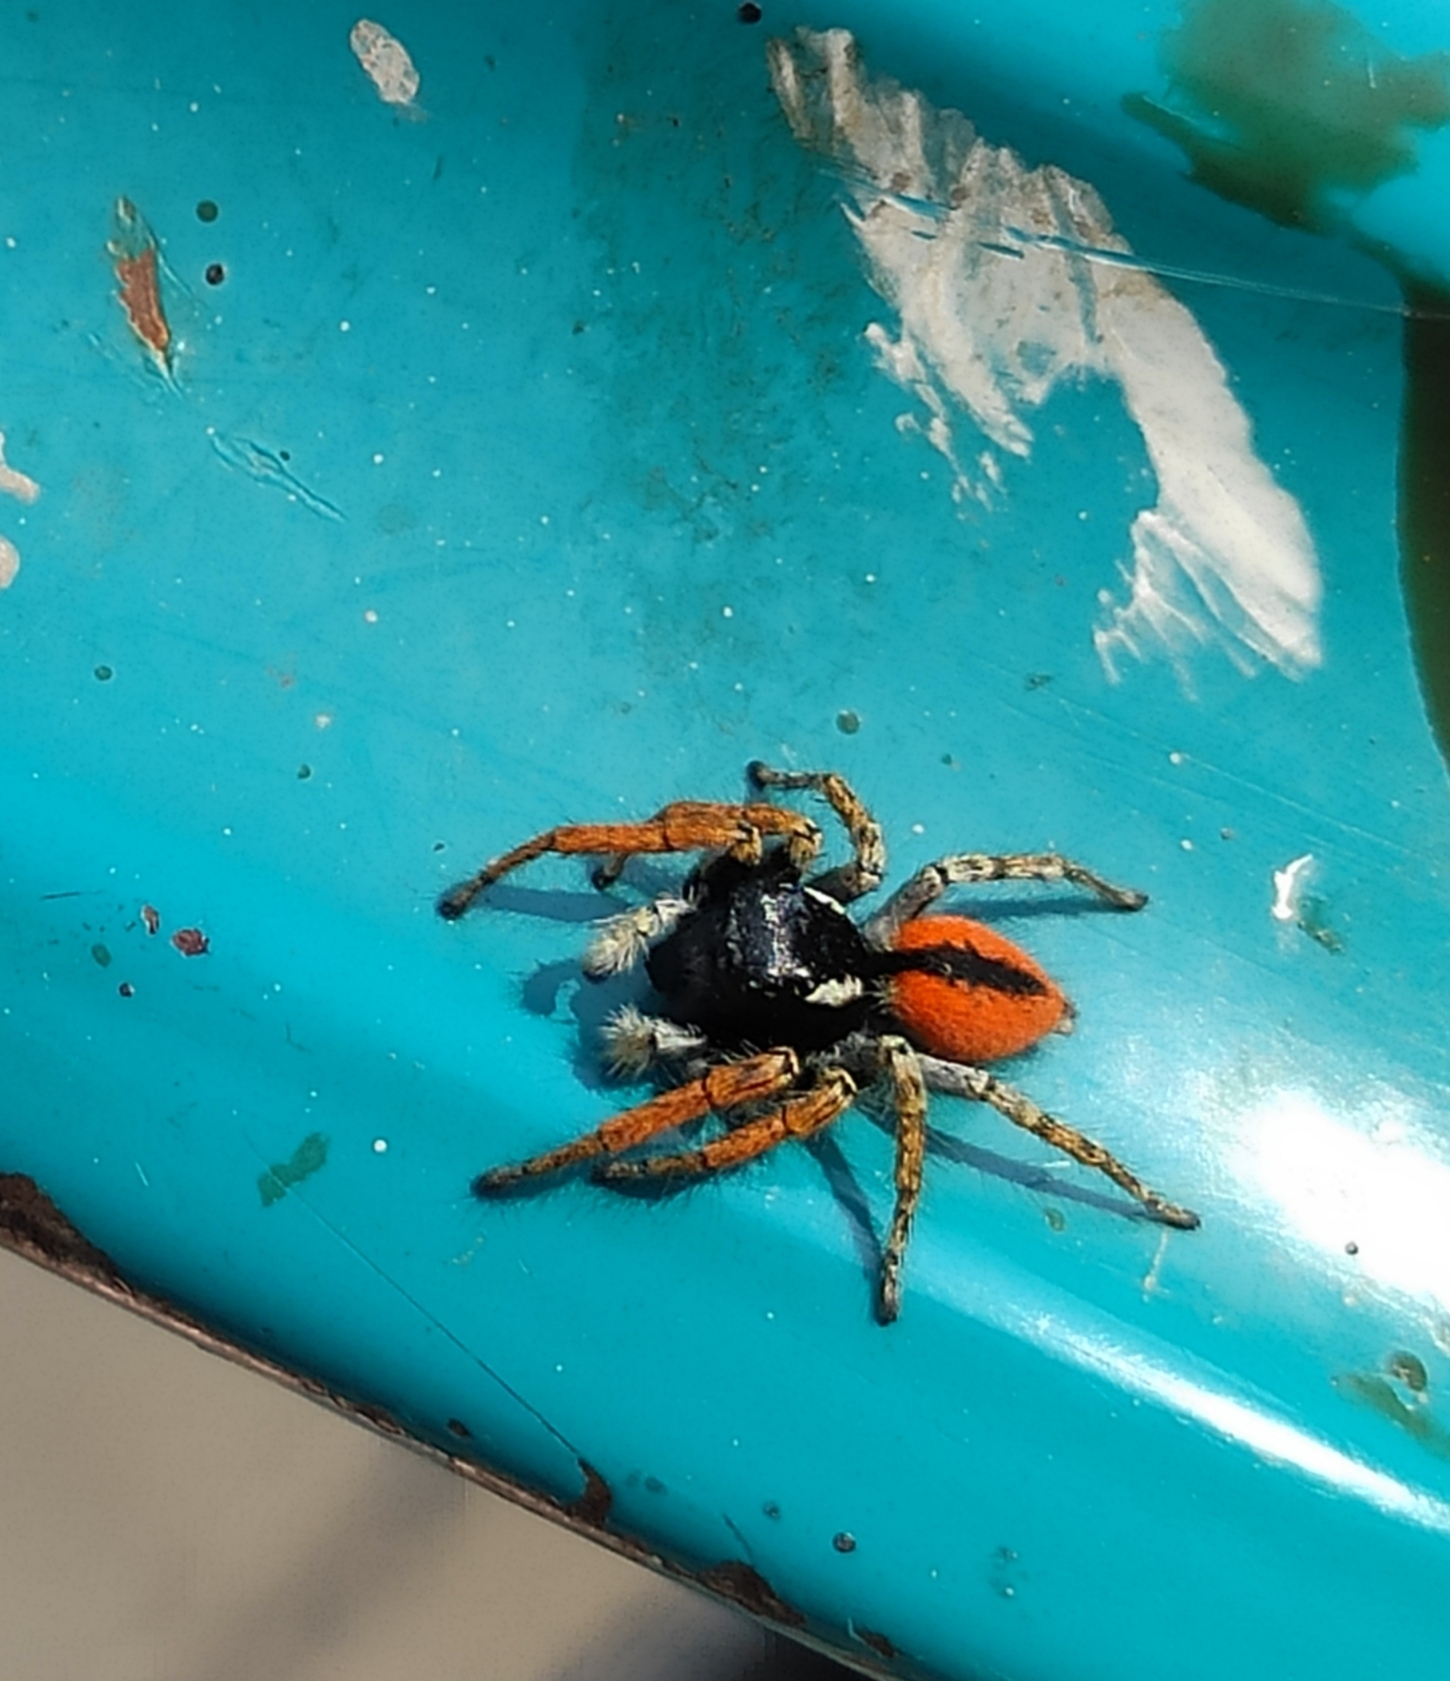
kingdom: Animalia
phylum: Arthropoda
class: Arachnida
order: Araneae
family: Salticidae
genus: Philaeus
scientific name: Philaeus chrysops
